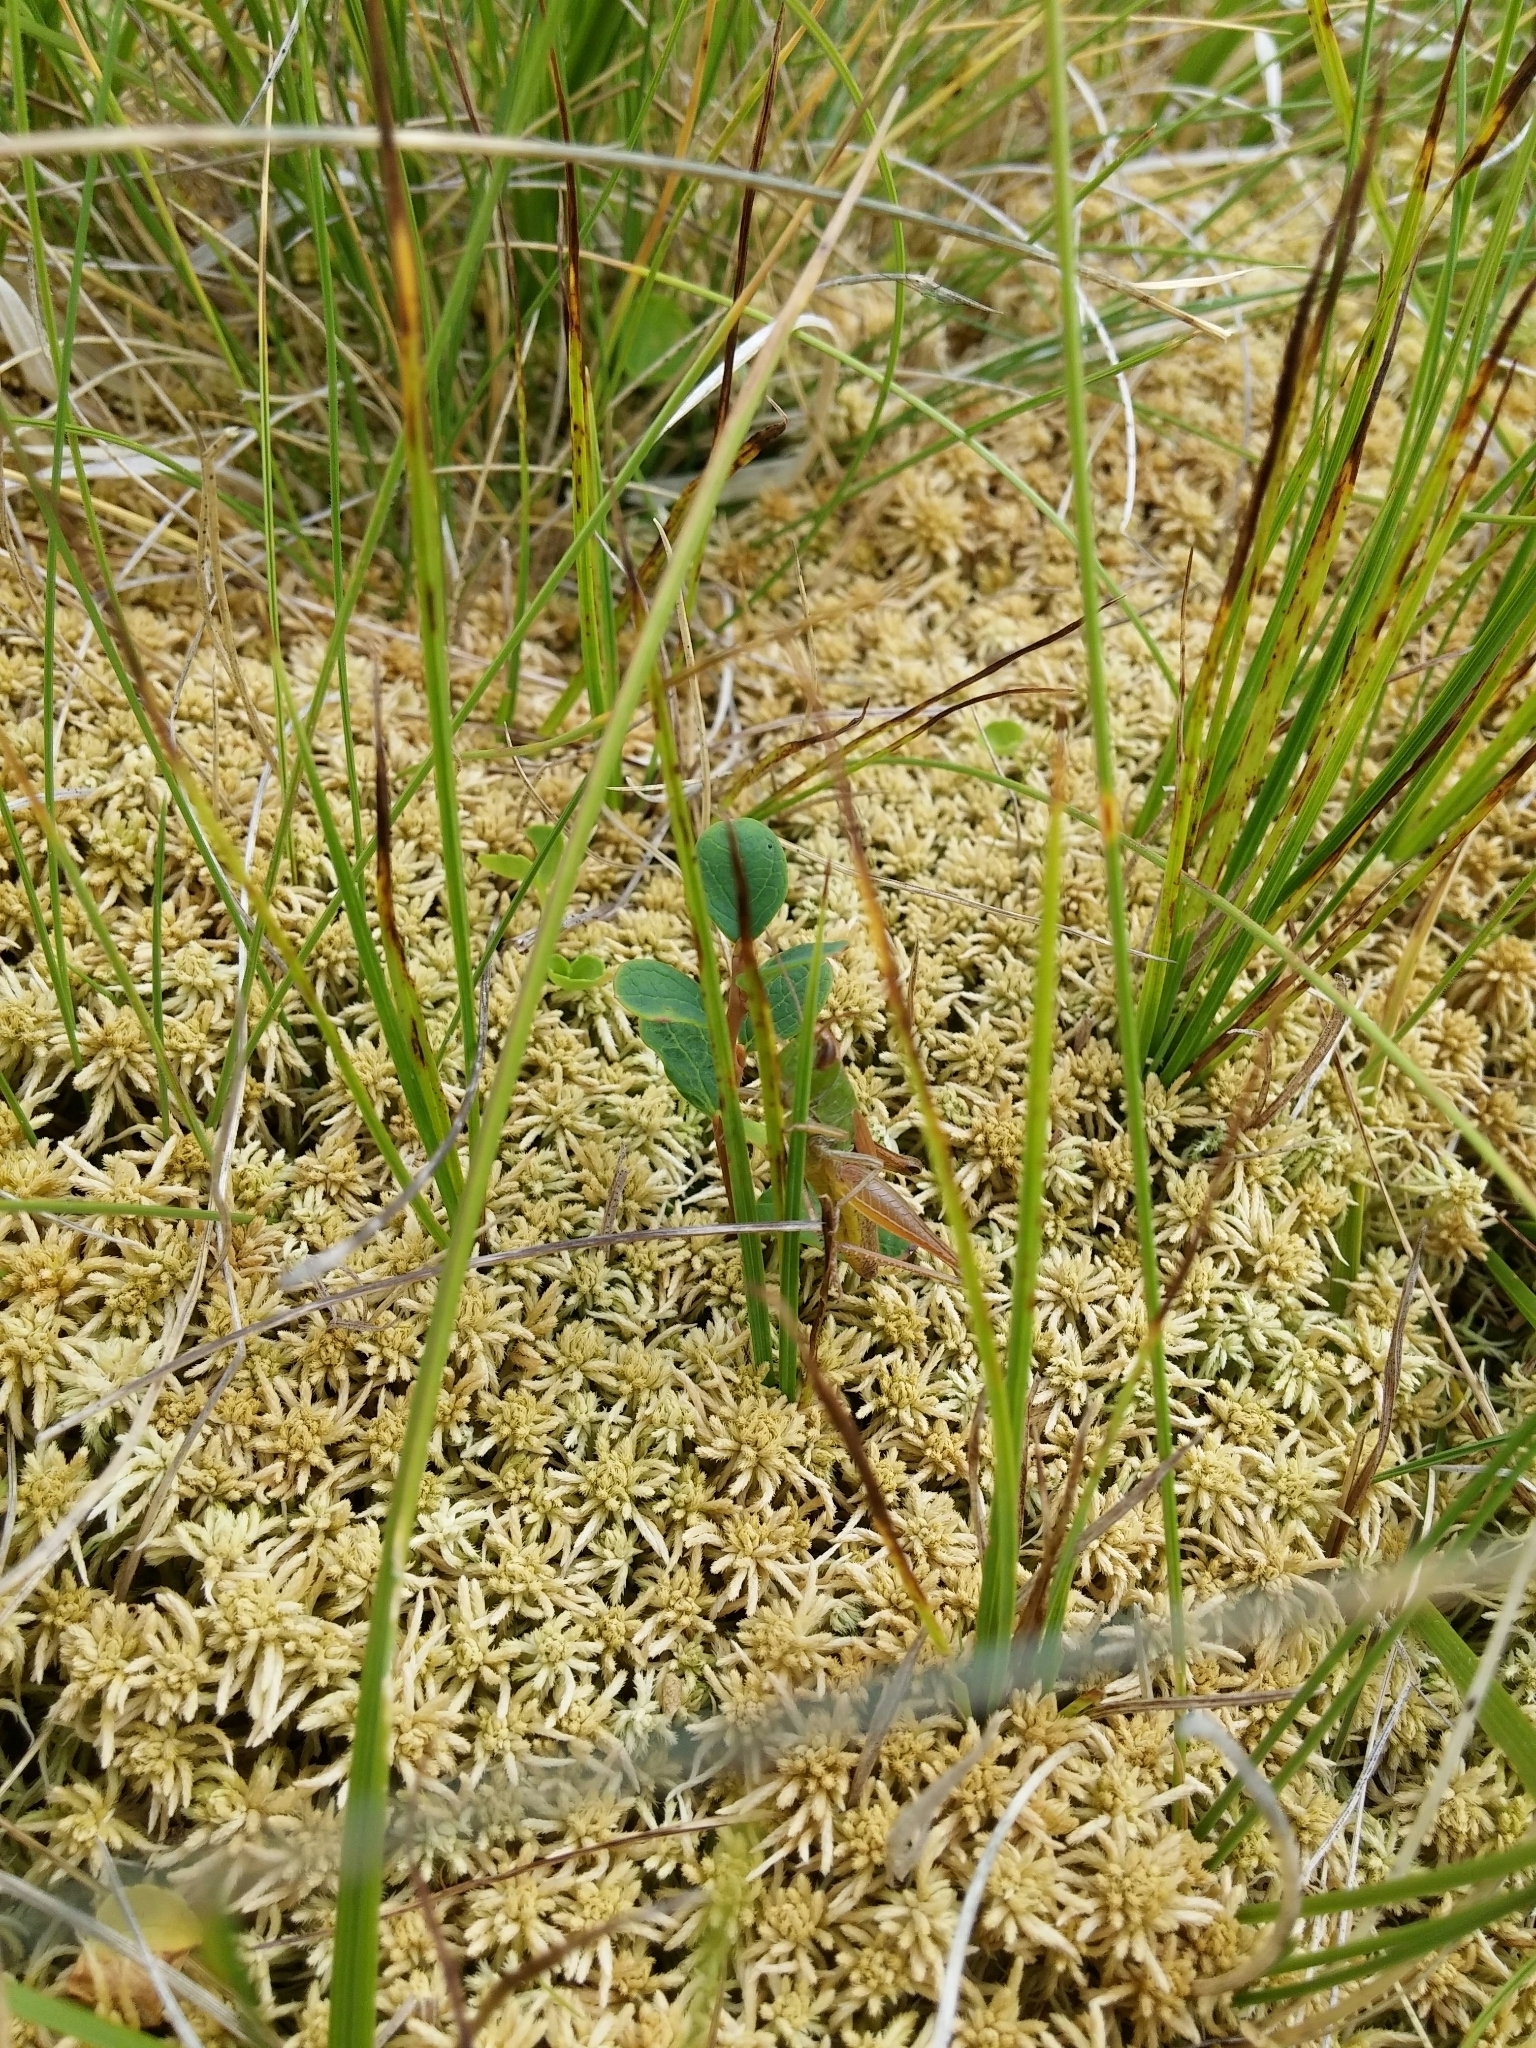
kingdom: Animalia
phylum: Arthropoda
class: Insecta
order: Orthoptera
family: Acrididae
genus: Pseudochorthippus
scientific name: Pseudochorthippus parallelus
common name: Meadow grasshopper
